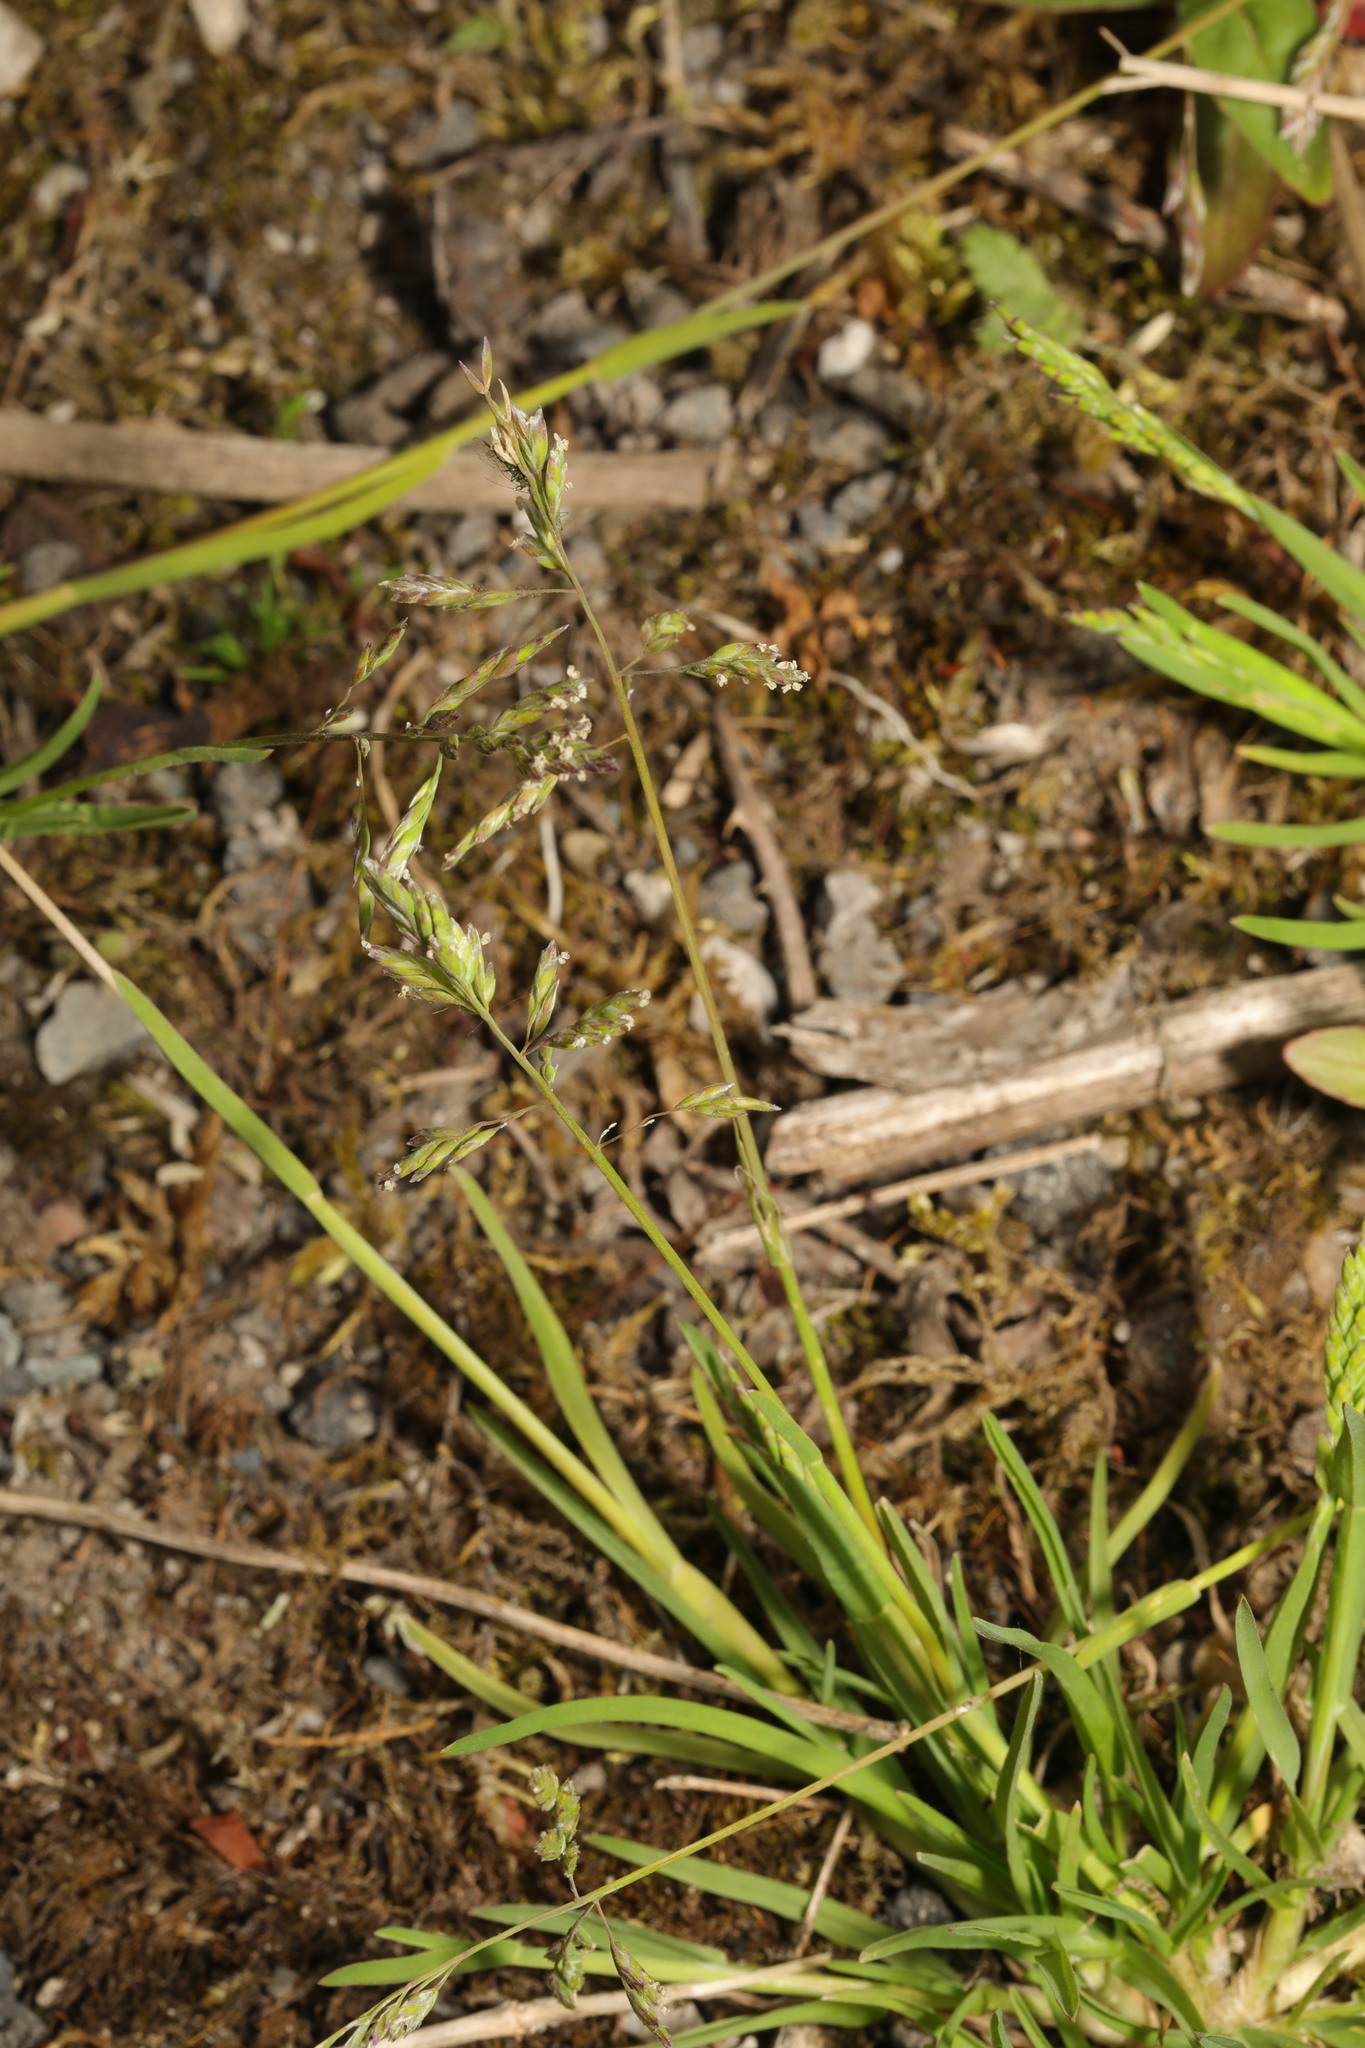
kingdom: Plantae
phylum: Tracheophyta
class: Liliopsida
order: Poales
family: Poaceae
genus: Poa
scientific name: Poa annua
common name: Annual bluegrass
